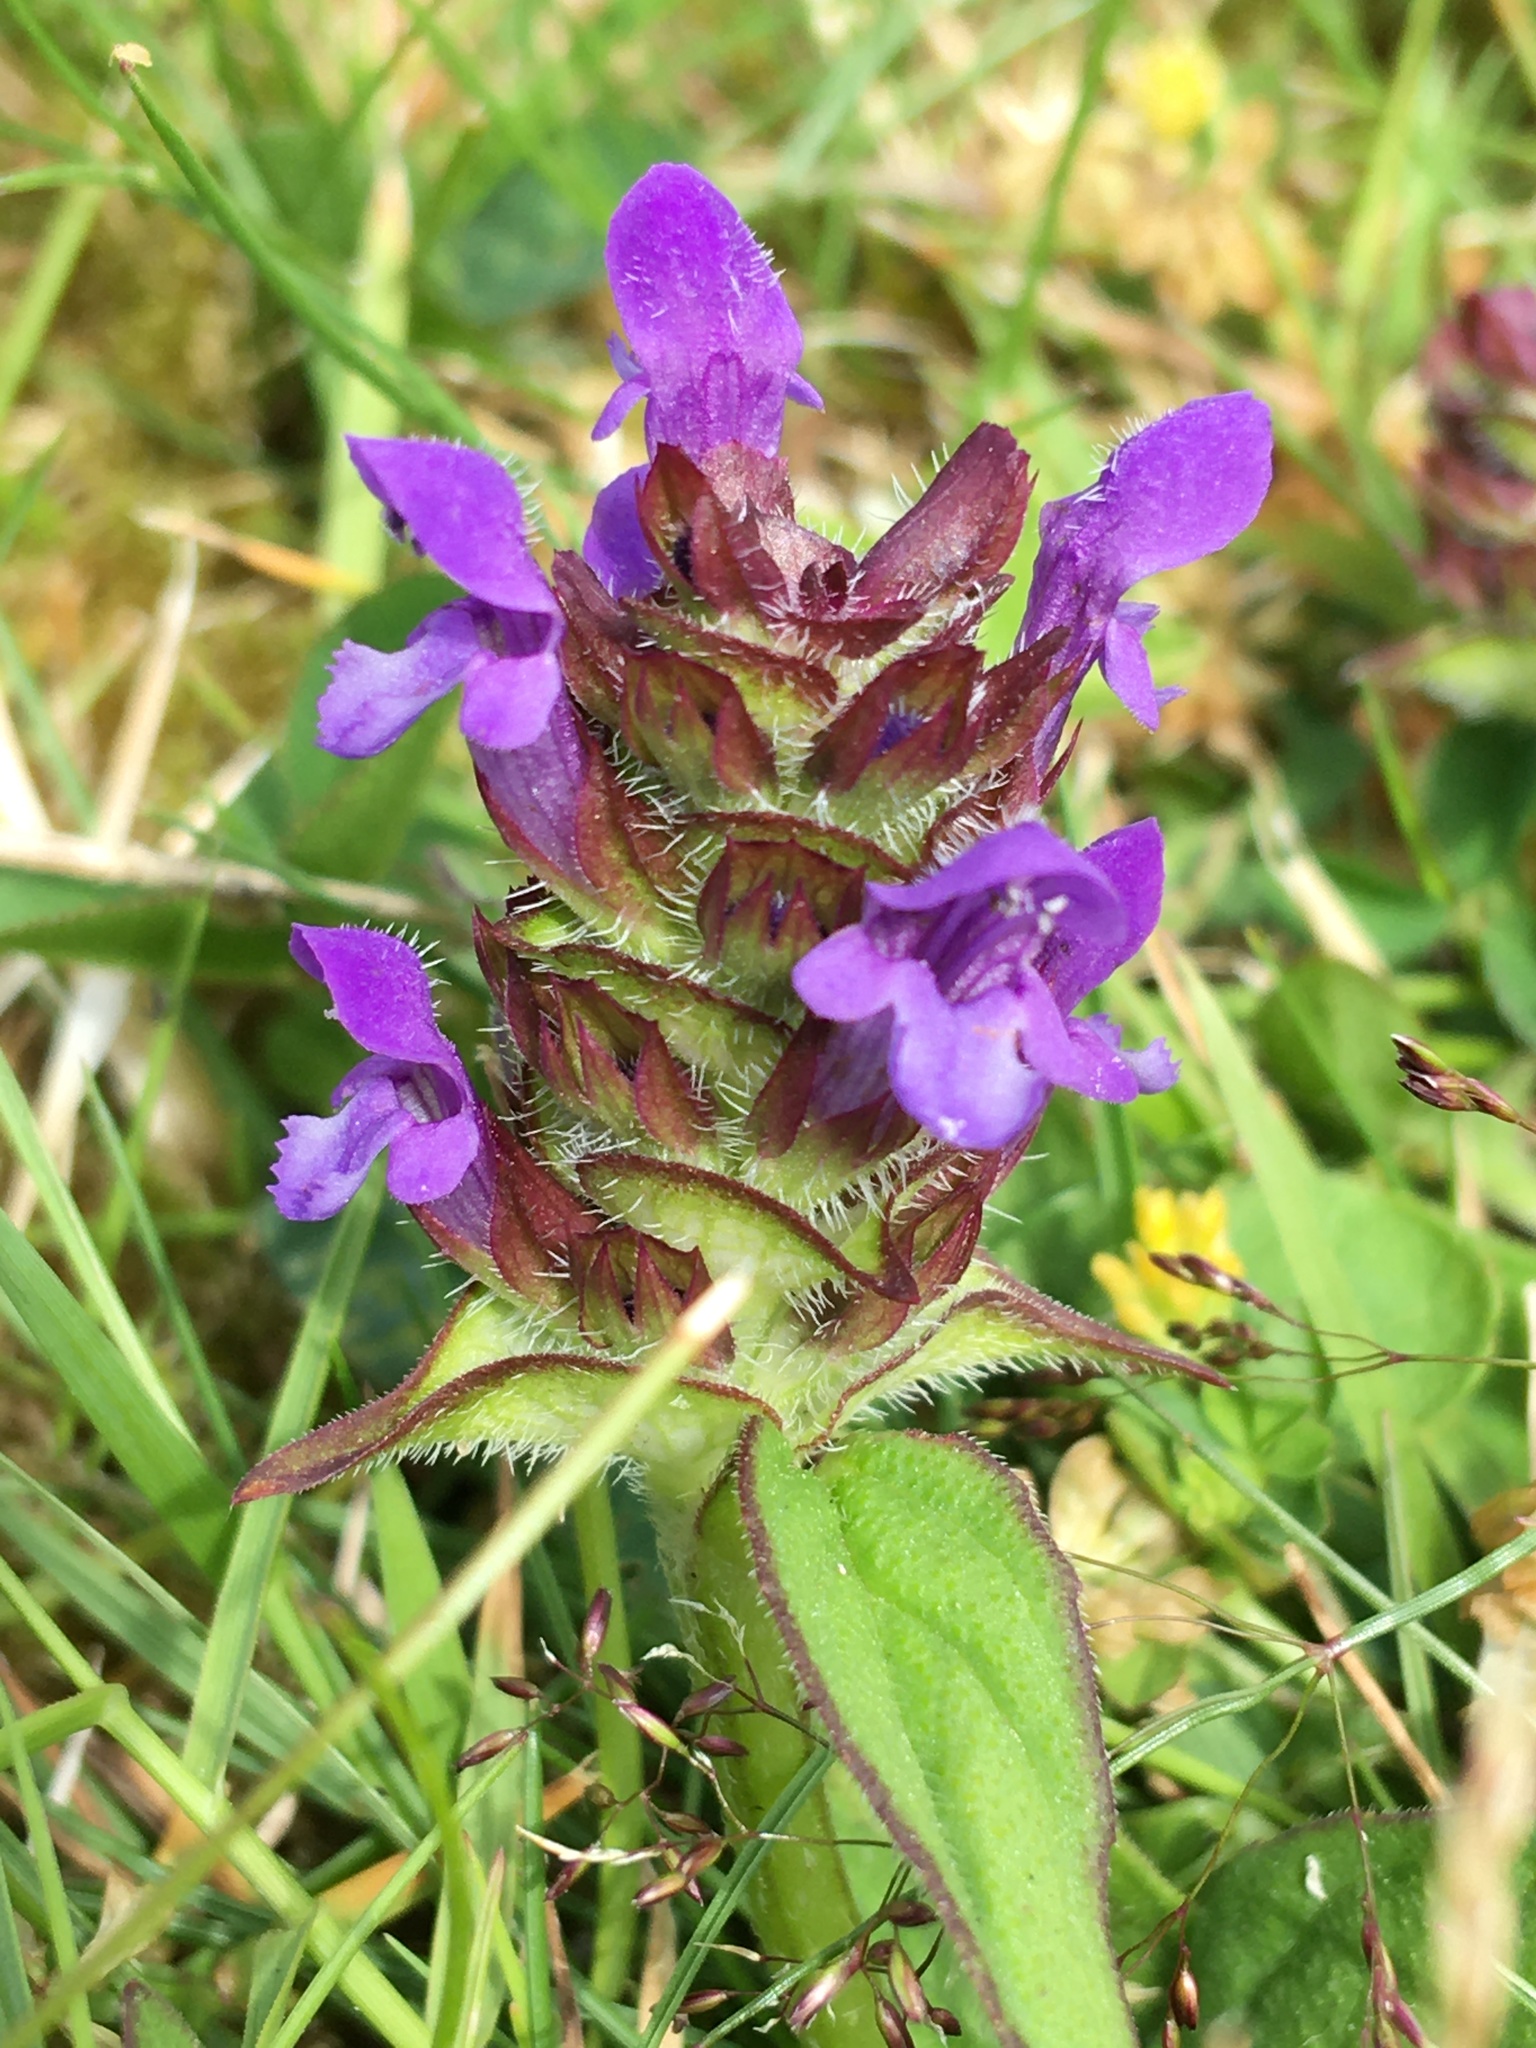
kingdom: Plantae
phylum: Tracheophyta
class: Magnoliopsida
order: Lamiales
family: Lamiaceae
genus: Prunella
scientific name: Prunella vulgaris
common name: Heal-all
